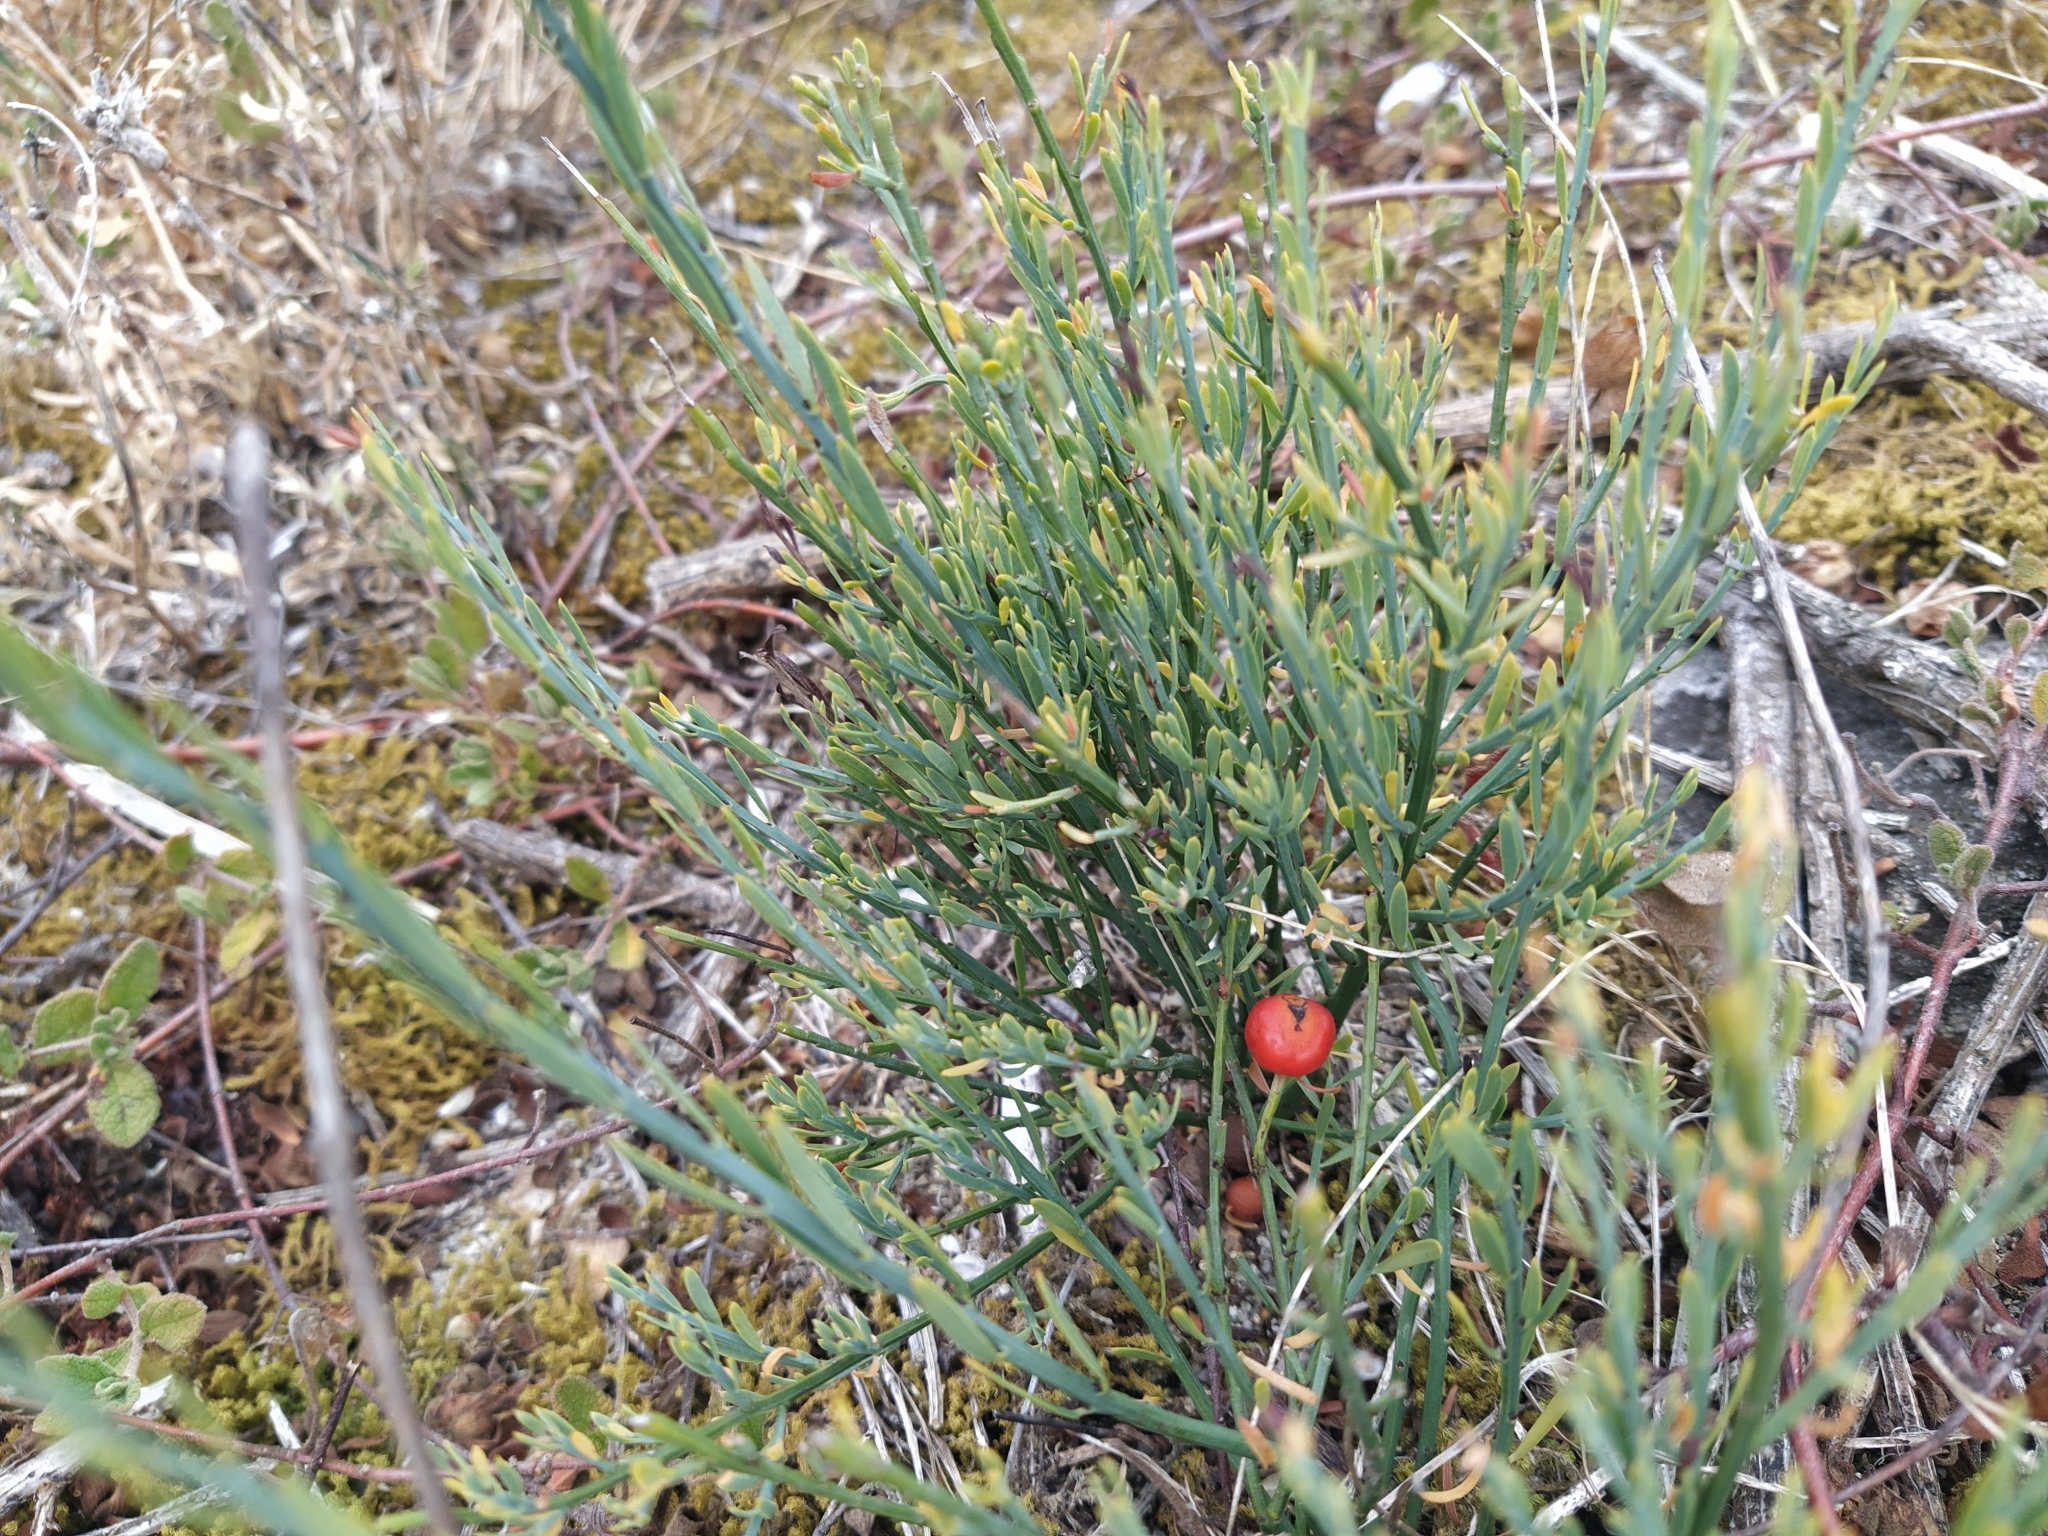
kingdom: Plantae
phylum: Tracheophyta
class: Magnoliopsida
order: Santalales
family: Santalaceae
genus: Osyris
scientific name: Osyris alba
